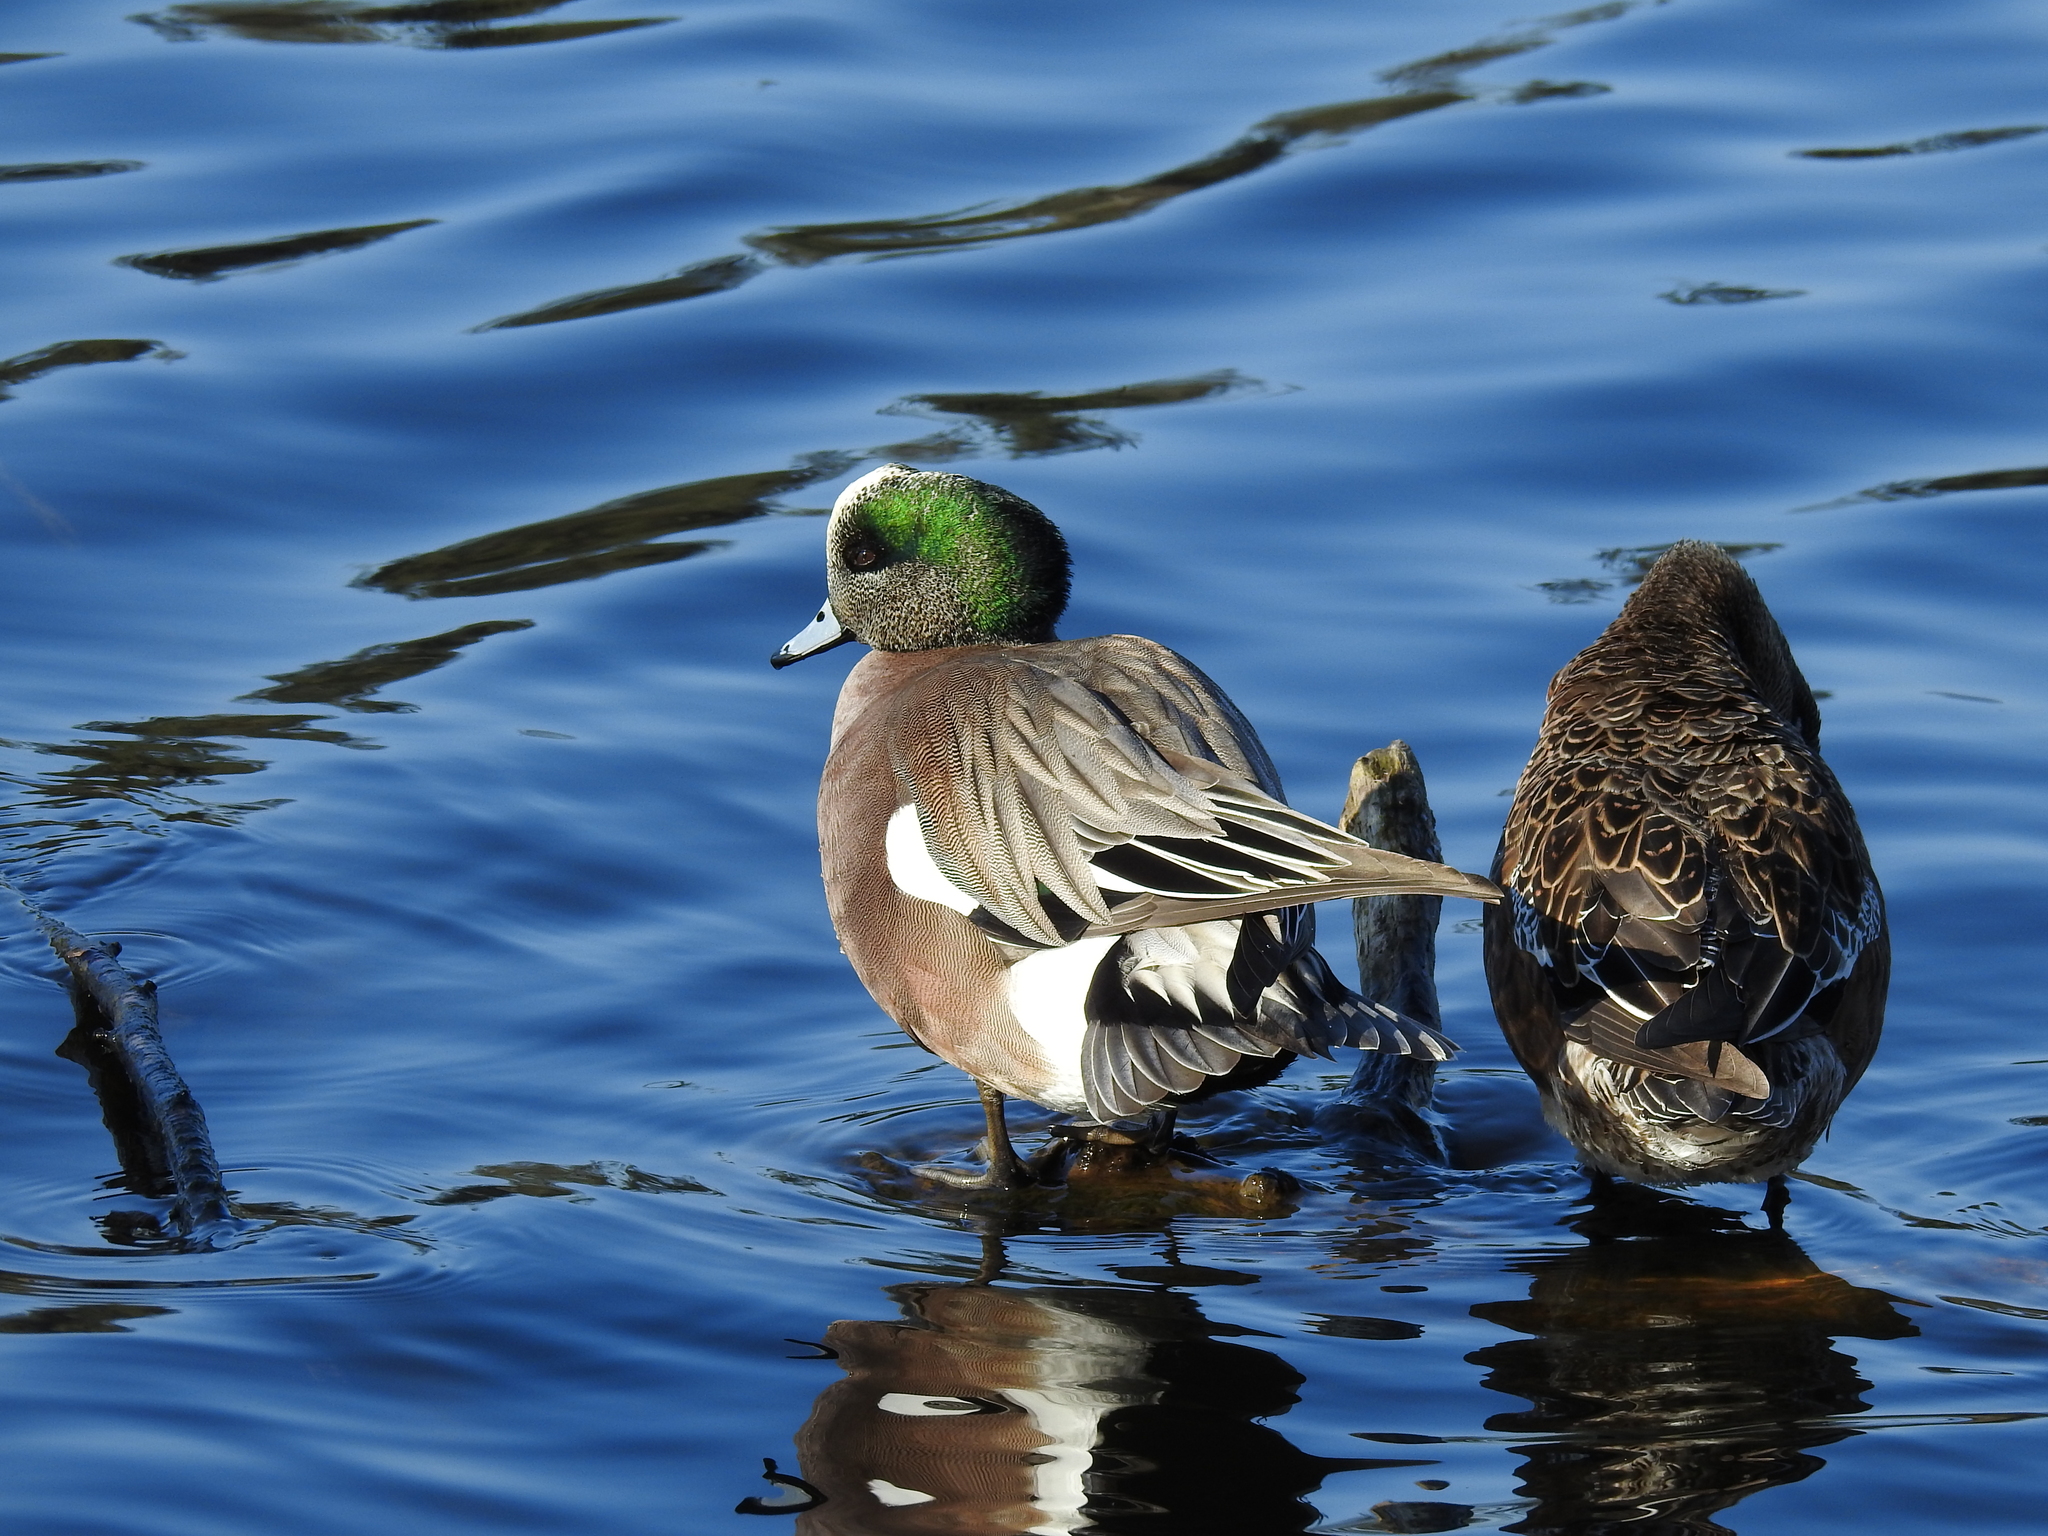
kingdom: Animalia
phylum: Chordata
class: Aves
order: Anseriformes
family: Anatidae
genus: Mareca
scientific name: Mareca americana
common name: American wigeon
